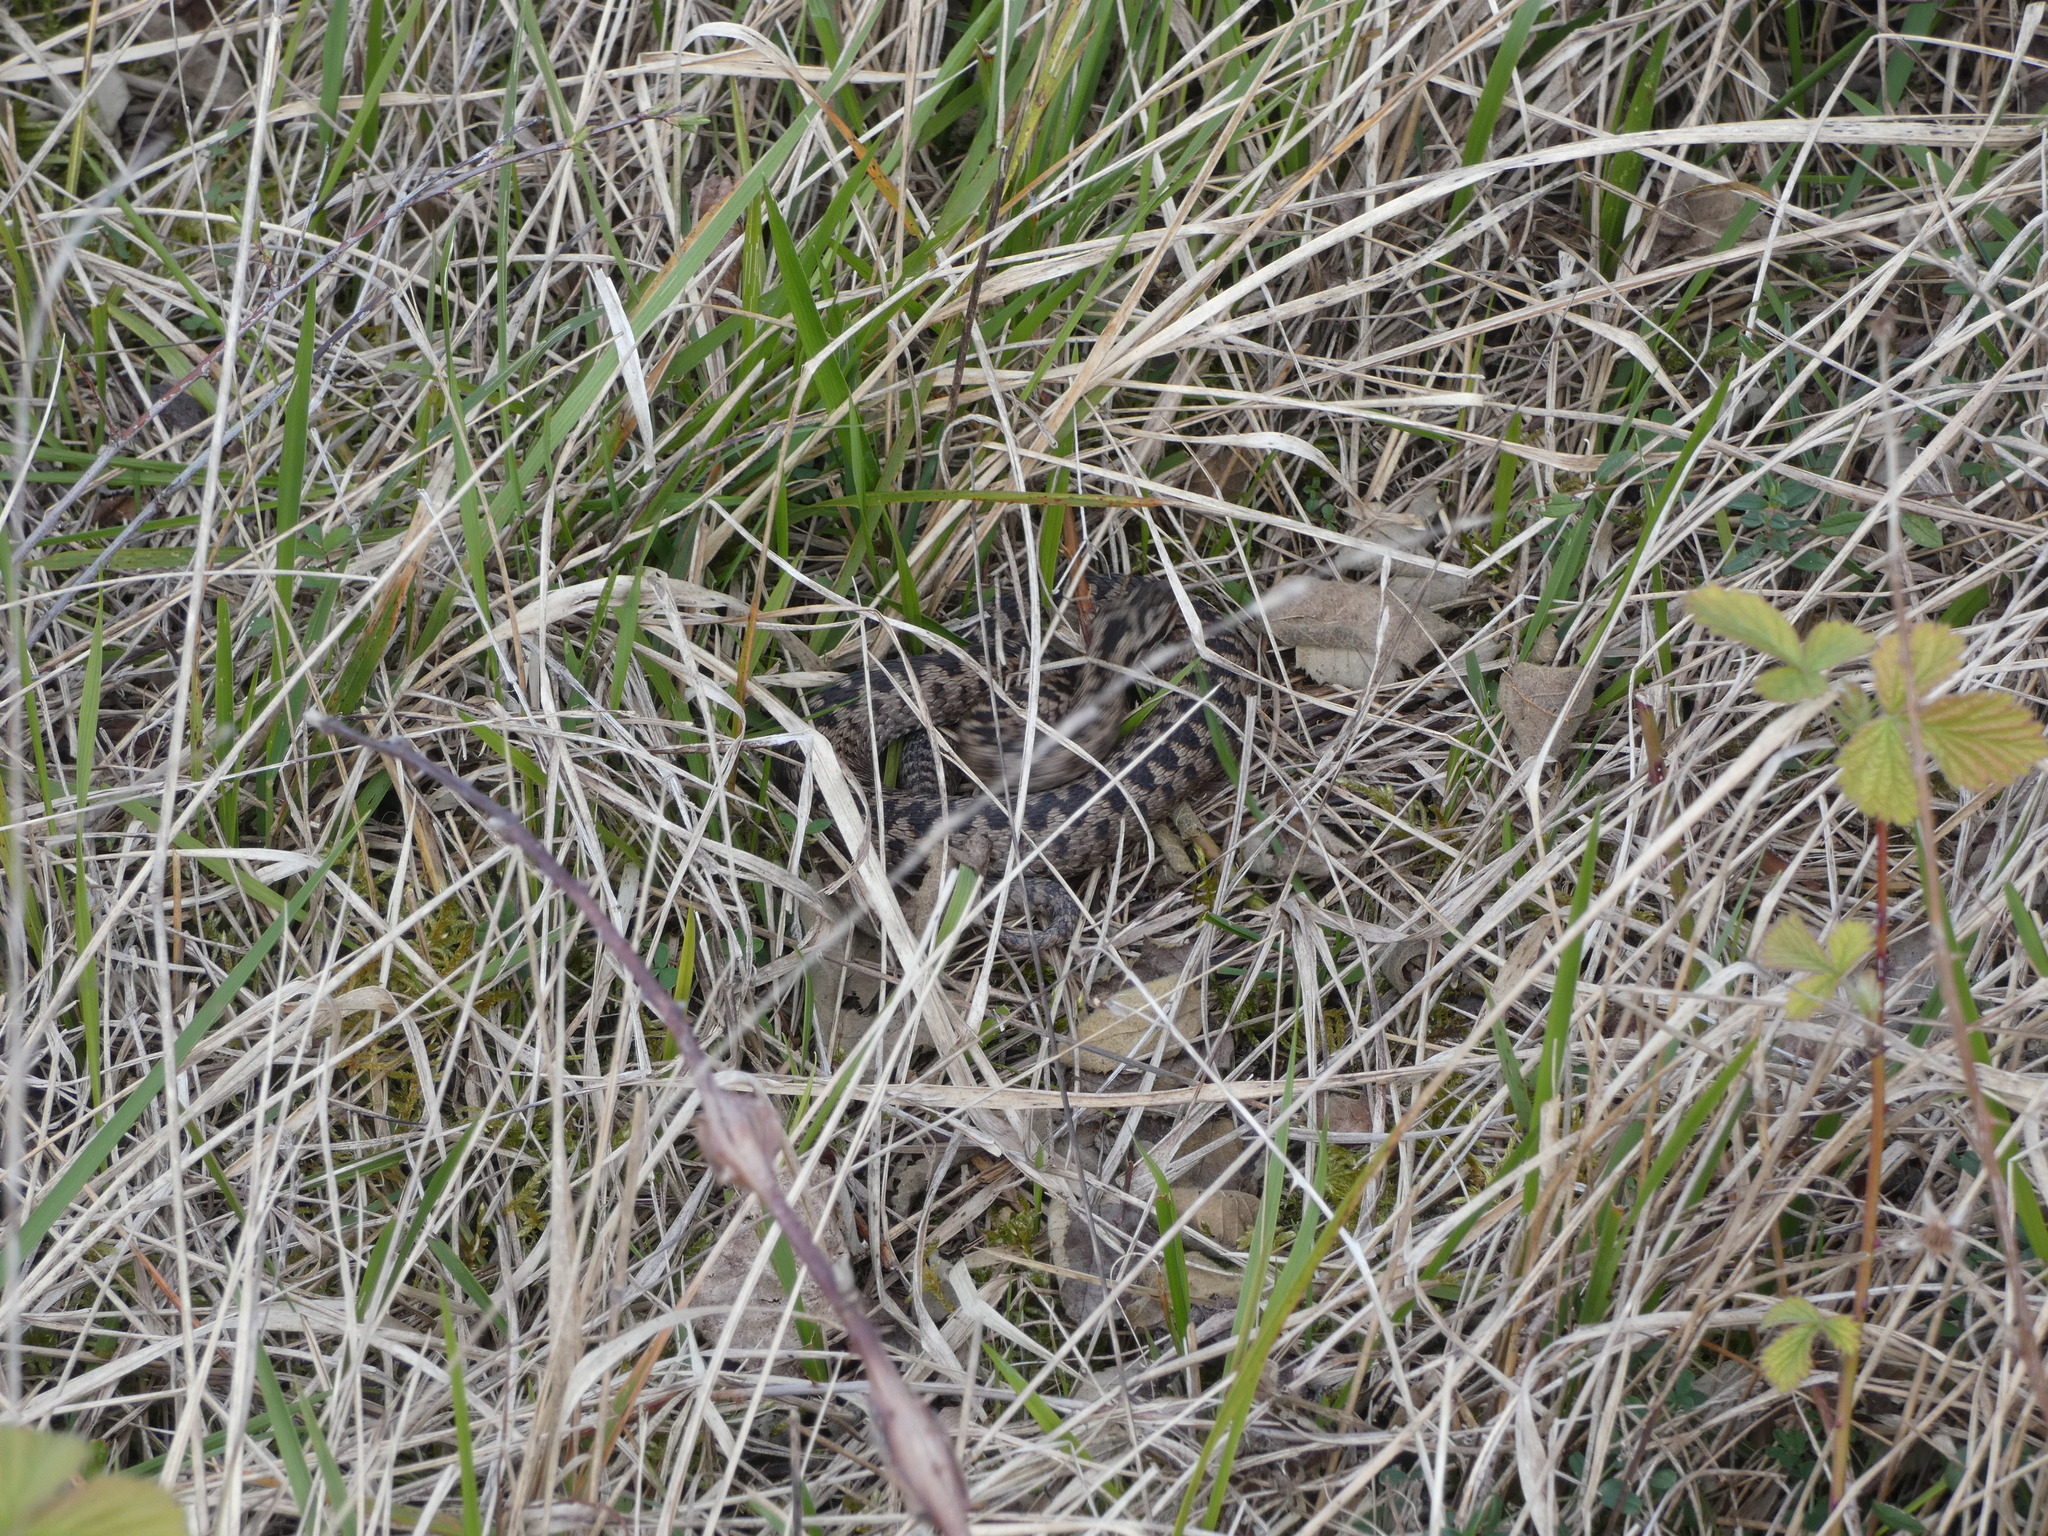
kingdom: Animalia
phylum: Chordata
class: Squamata
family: Viperidae
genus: Vipera
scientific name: Vipera berus
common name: Adder
